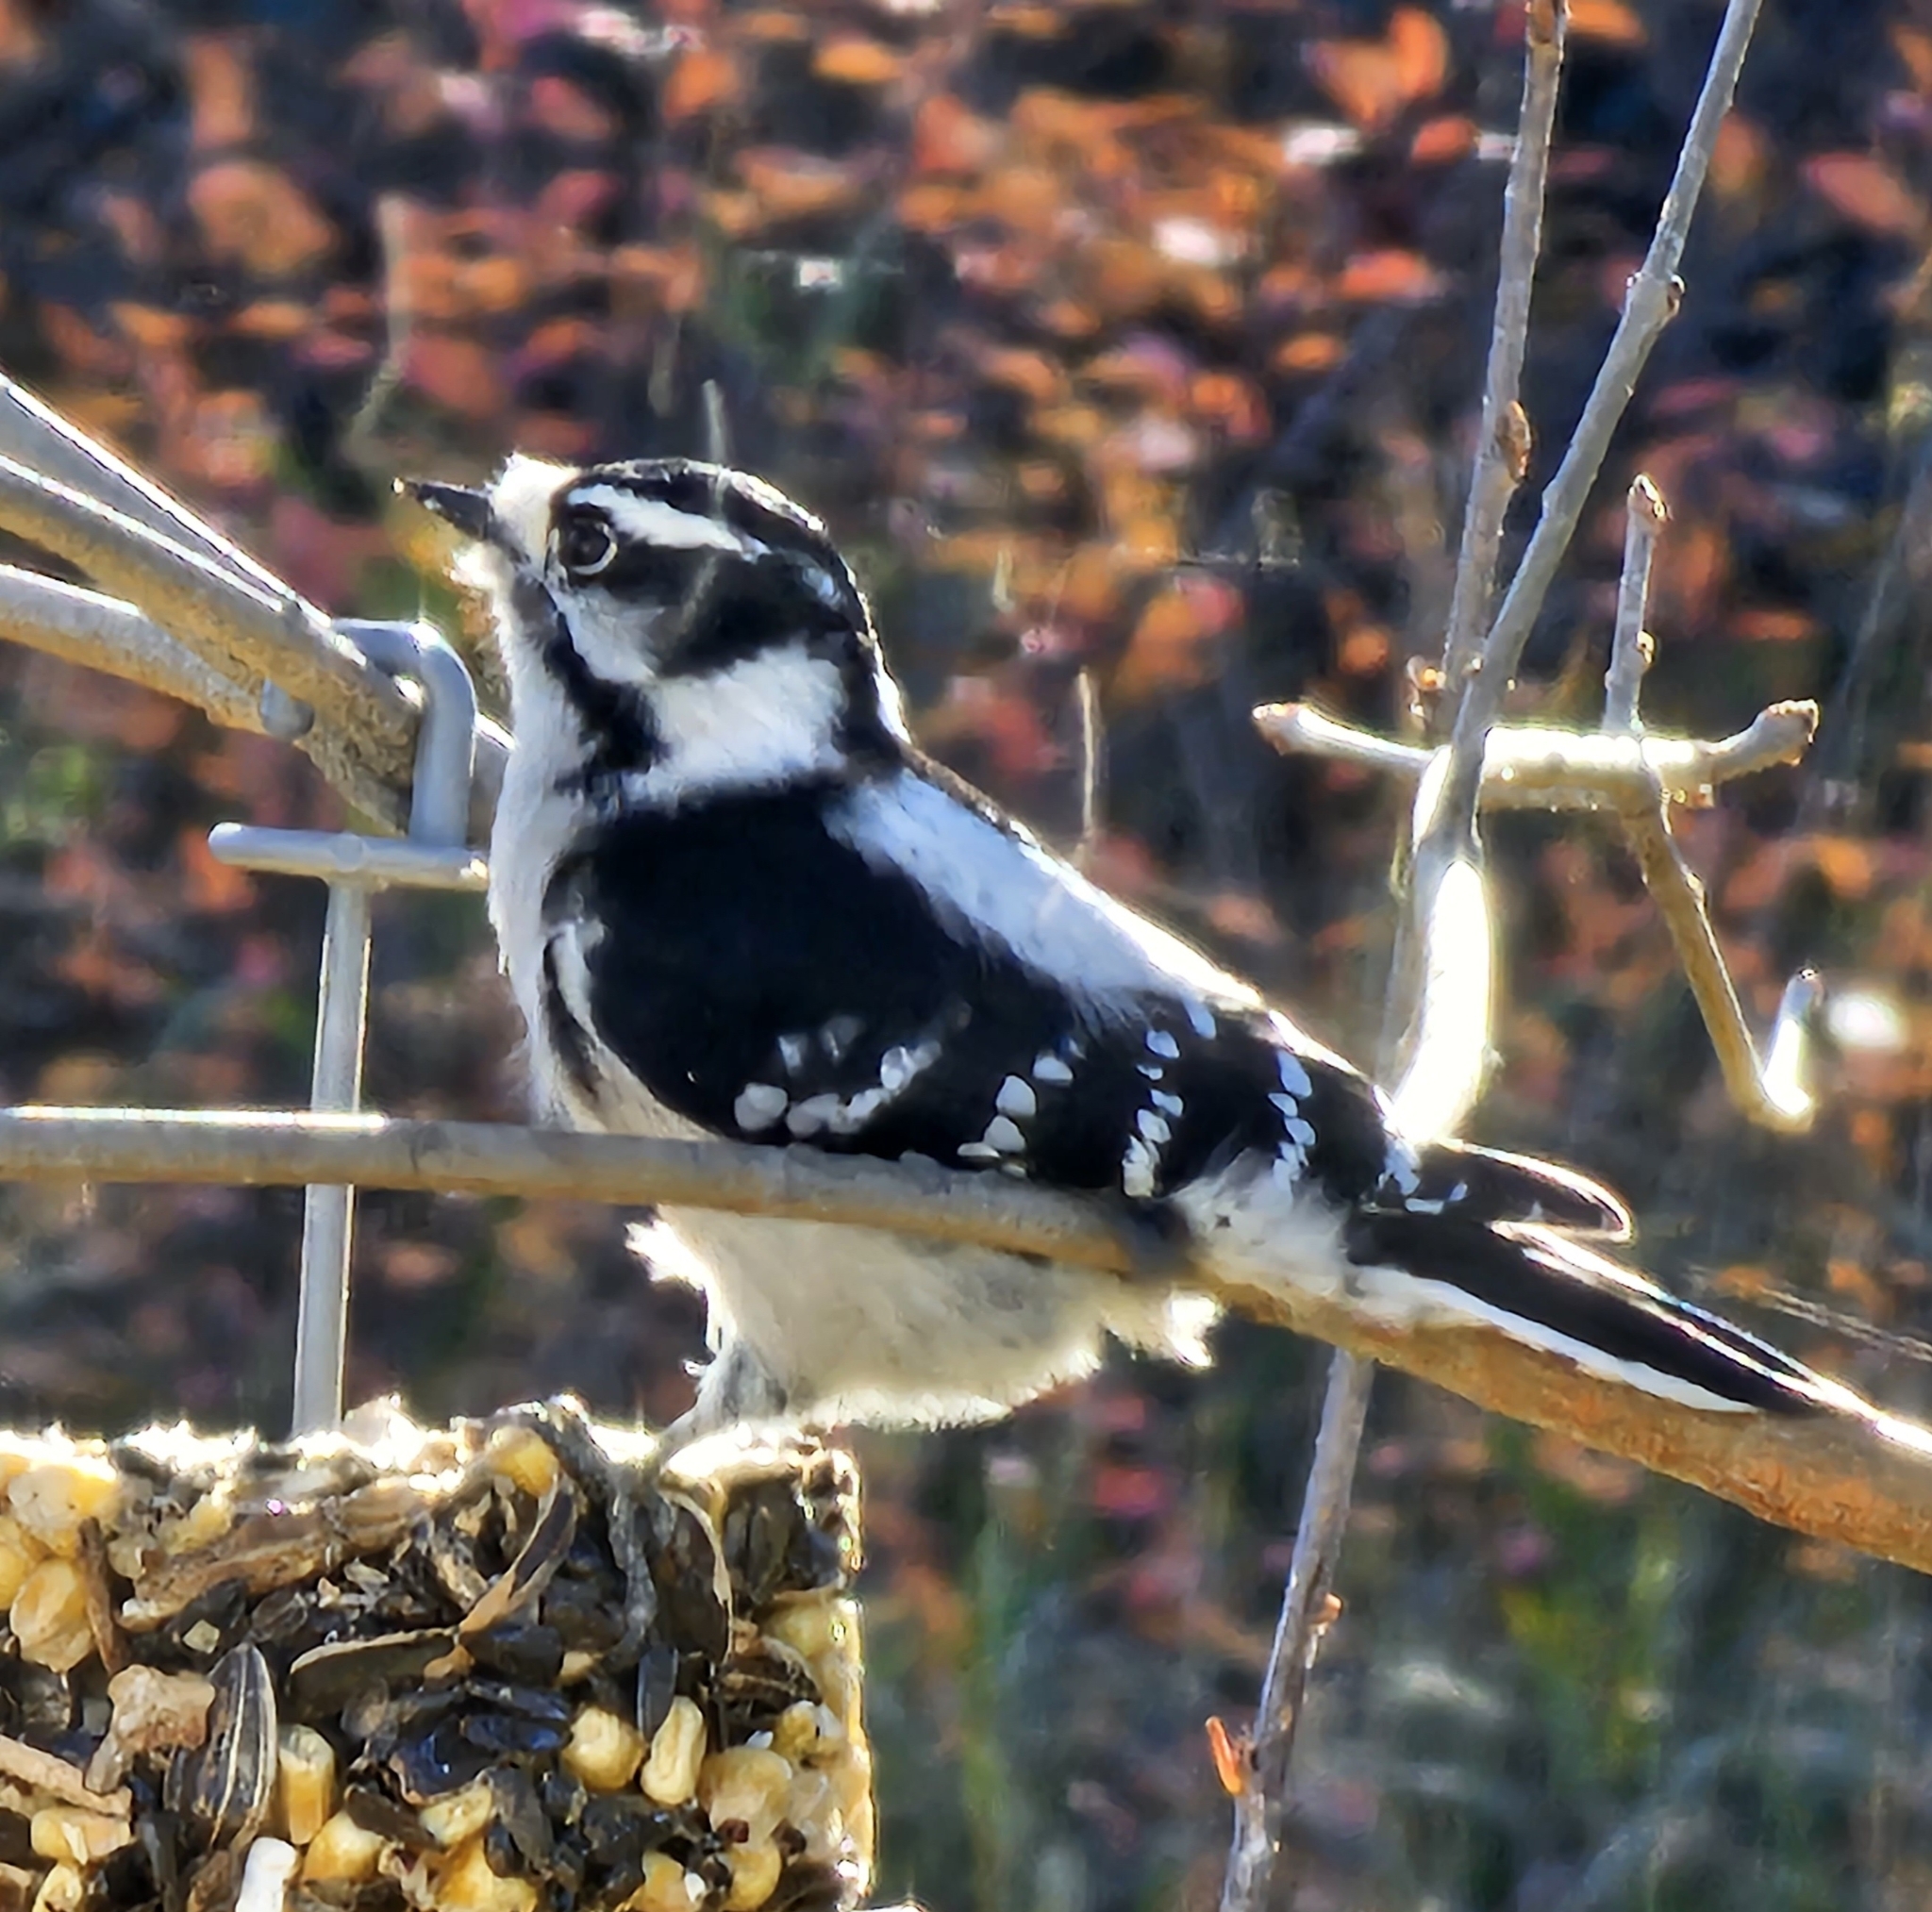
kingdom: Animalia
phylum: Chordata
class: Aves
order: Piciformes
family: Picidae
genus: Dryobates
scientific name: Dryobates pubescens
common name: Downy woodpecker
